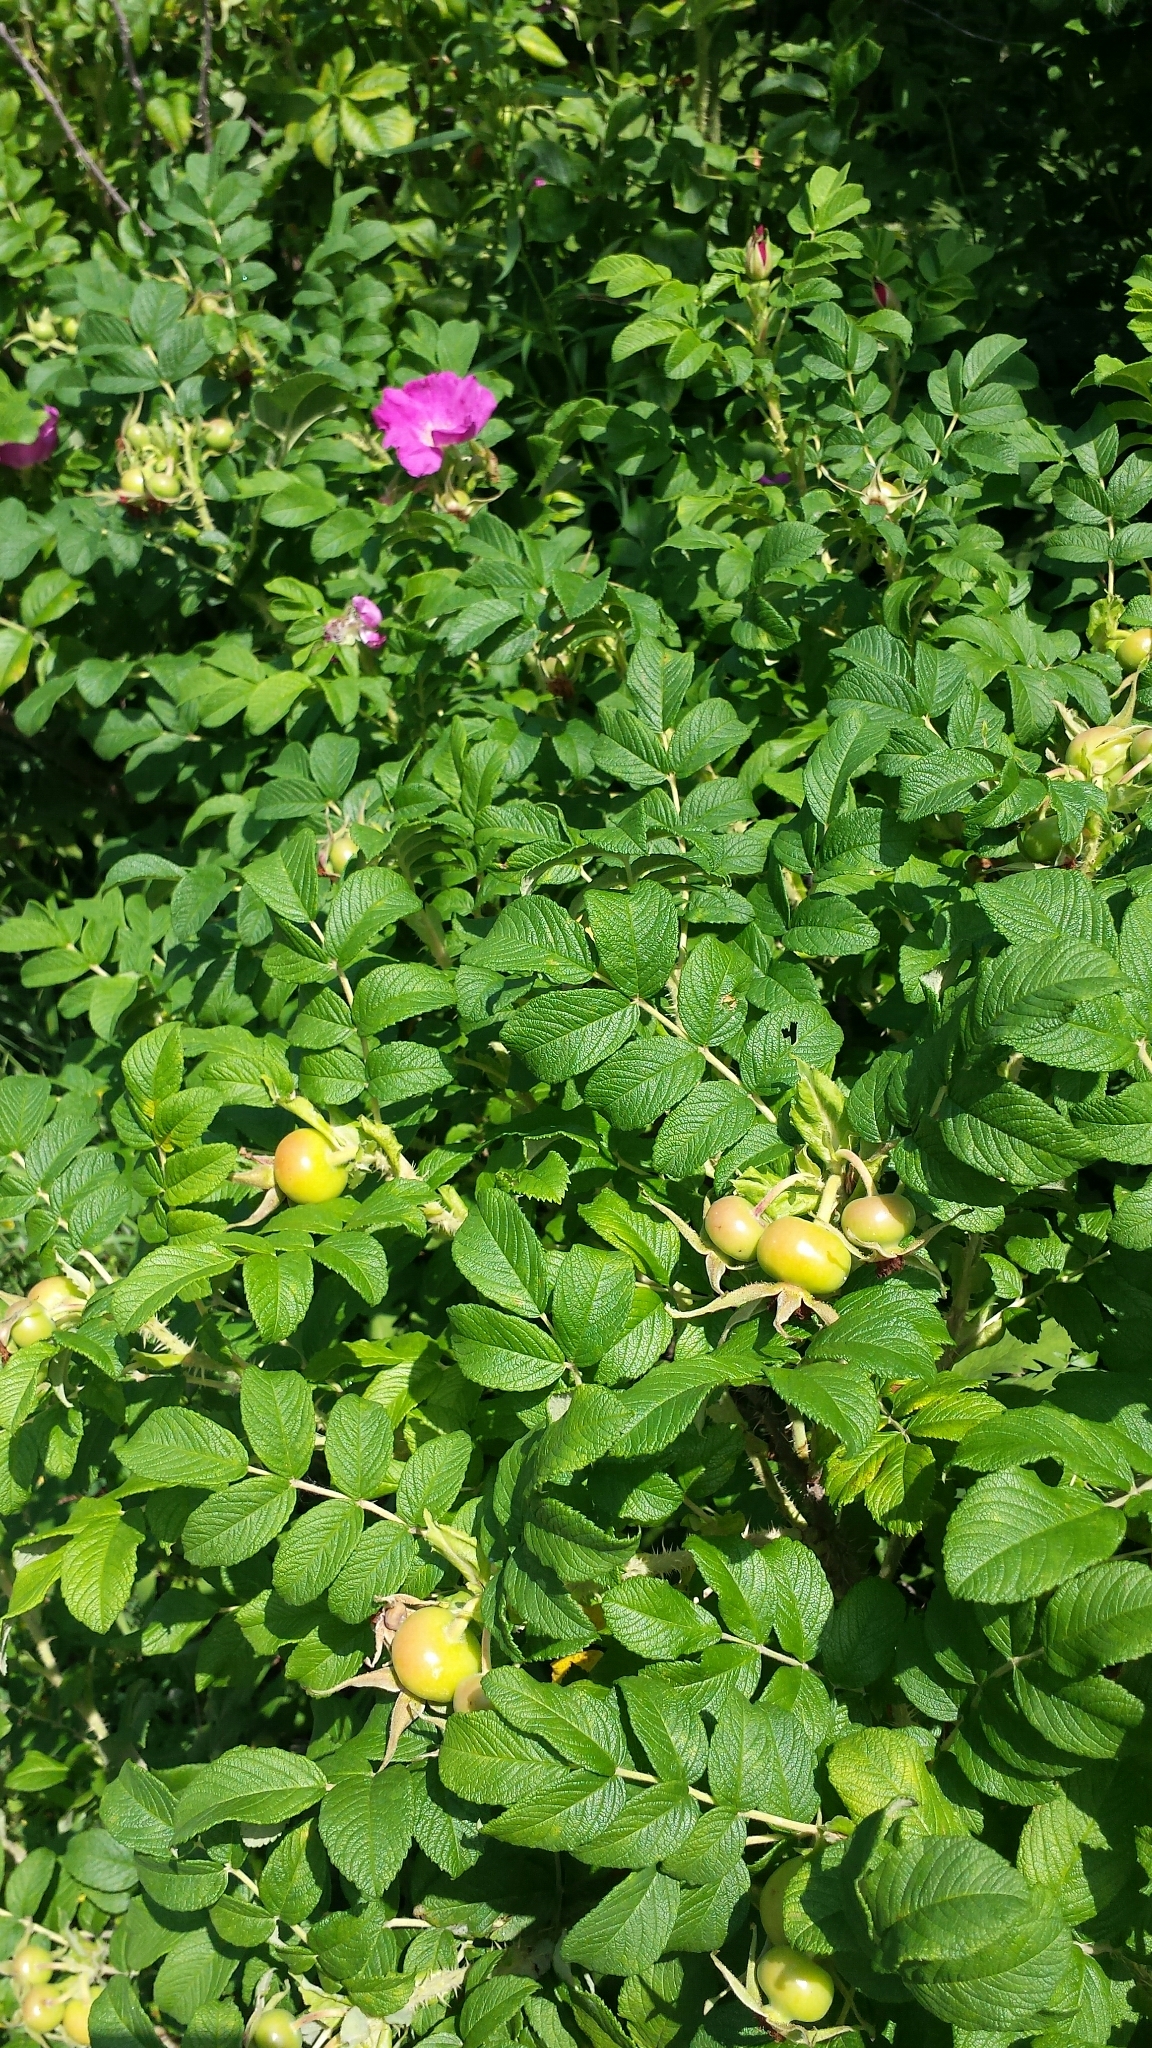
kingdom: Plantae
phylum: Tracheophyta
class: Magnoliopsida
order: Rosales
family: Rosaceae
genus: Rosa
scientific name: Rosa rugosa
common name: Japanese rose
